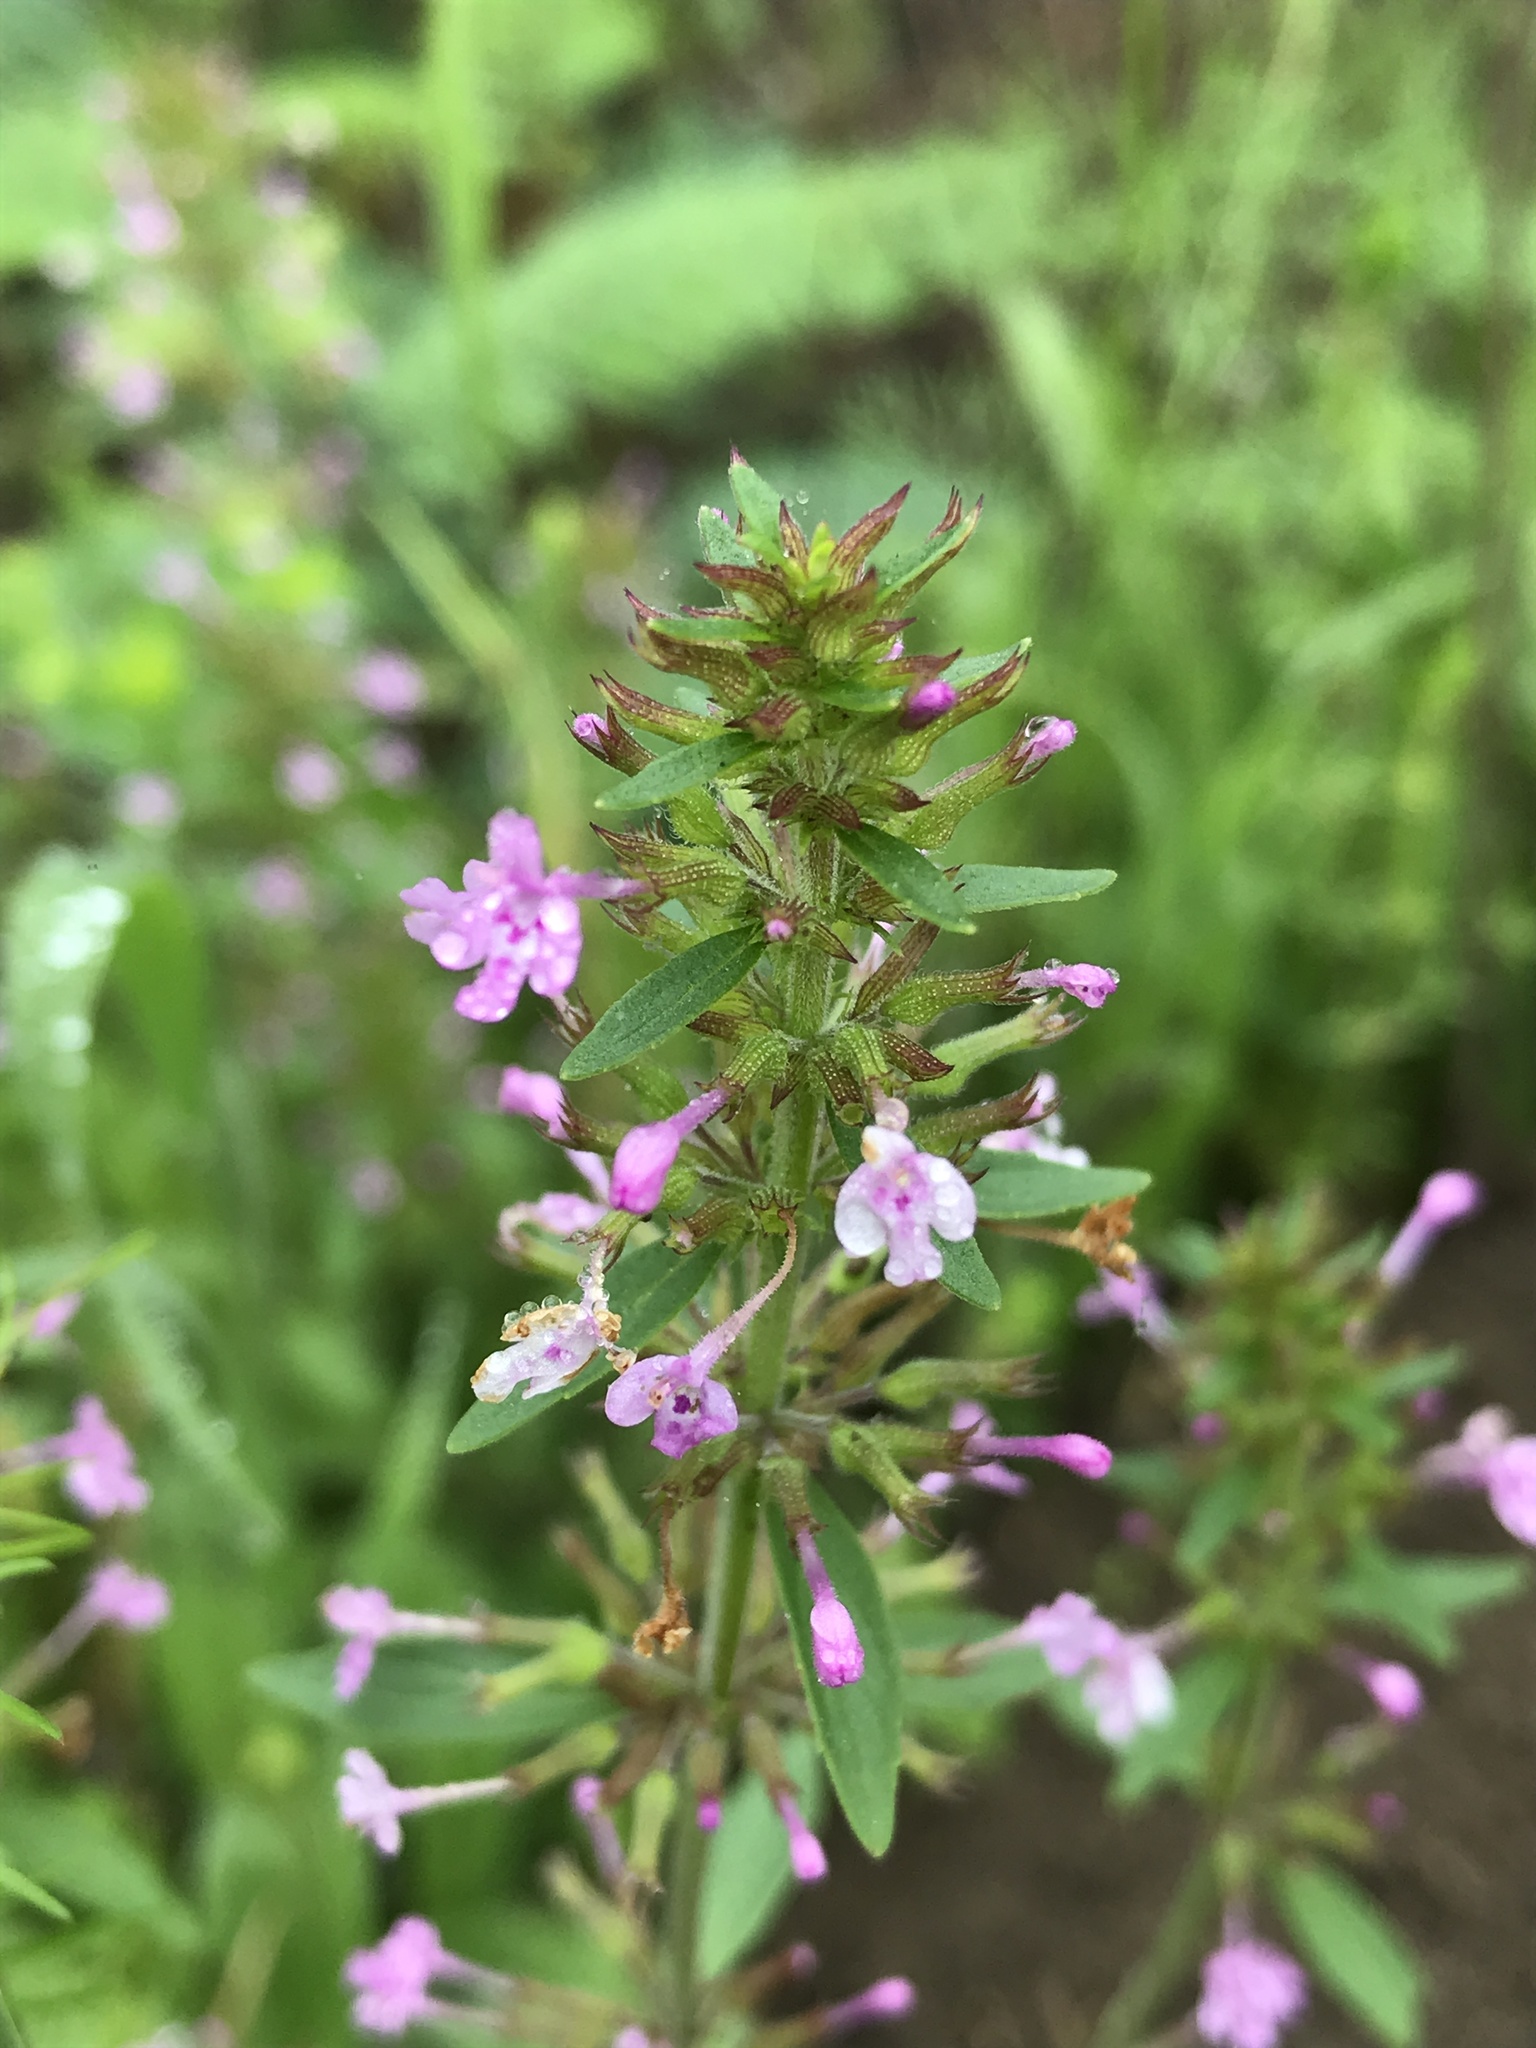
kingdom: Plantae
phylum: Tracheophyta
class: Magnoliopsida
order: Lamiales
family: Lamiaceae
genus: Hedeoma
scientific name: Hedeoma acinoides
